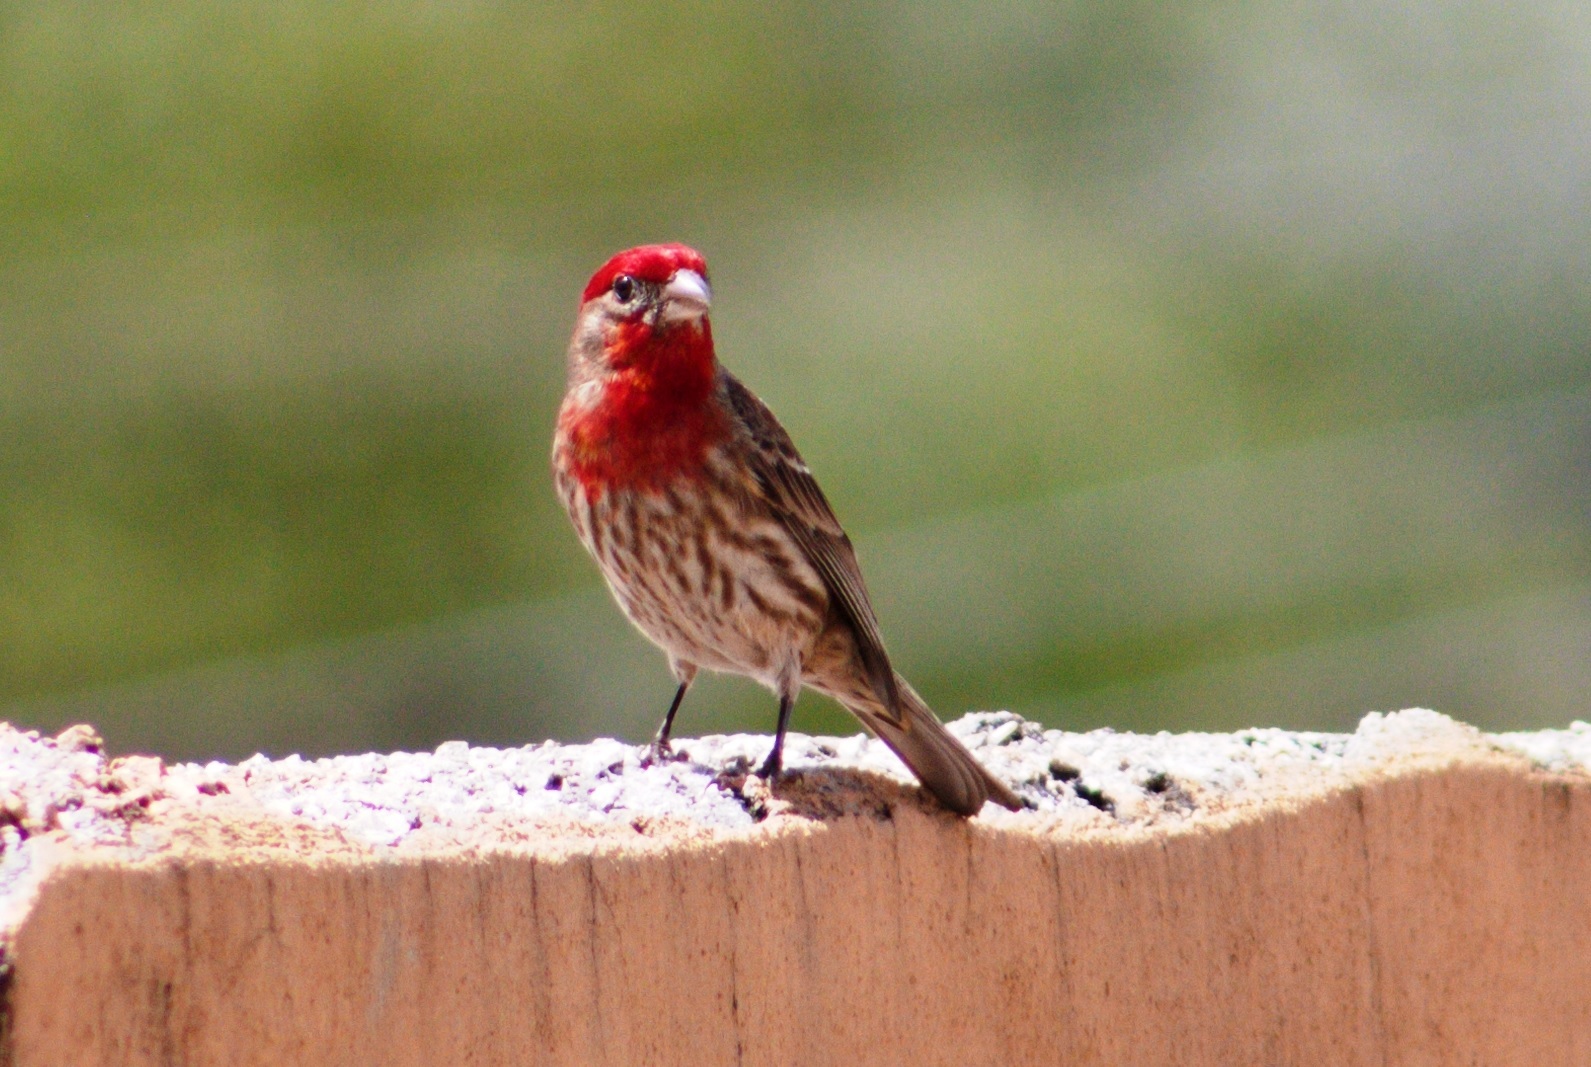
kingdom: Animalia
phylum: Chordata
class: Aves
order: Passeriformes
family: Fringillidae
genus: Haemorhous
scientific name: Haemorhous mexicanus
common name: House finch
